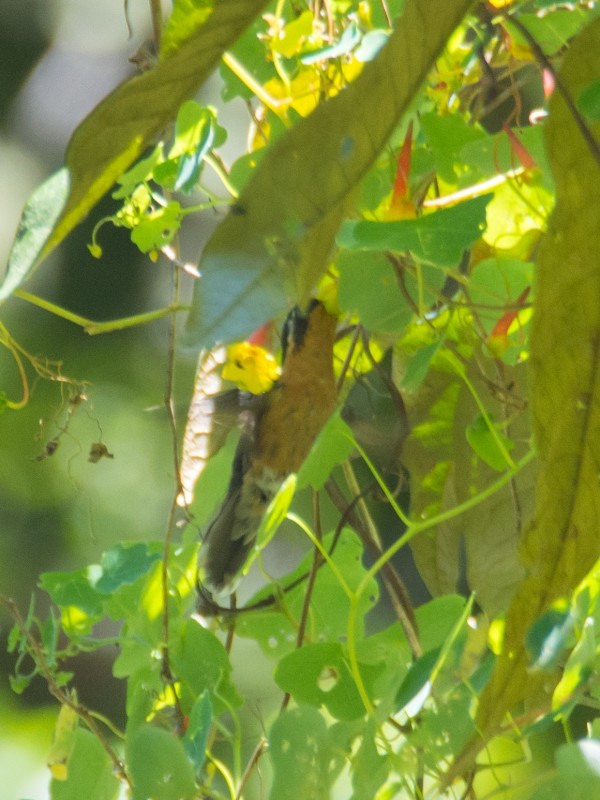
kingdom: Animalia
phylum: Chordata
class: Aves
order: Apodiformes
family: Trochilidae
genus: Lampornis
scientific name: Lampornis cinereicauda
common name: Grey-tailed mountaingem
